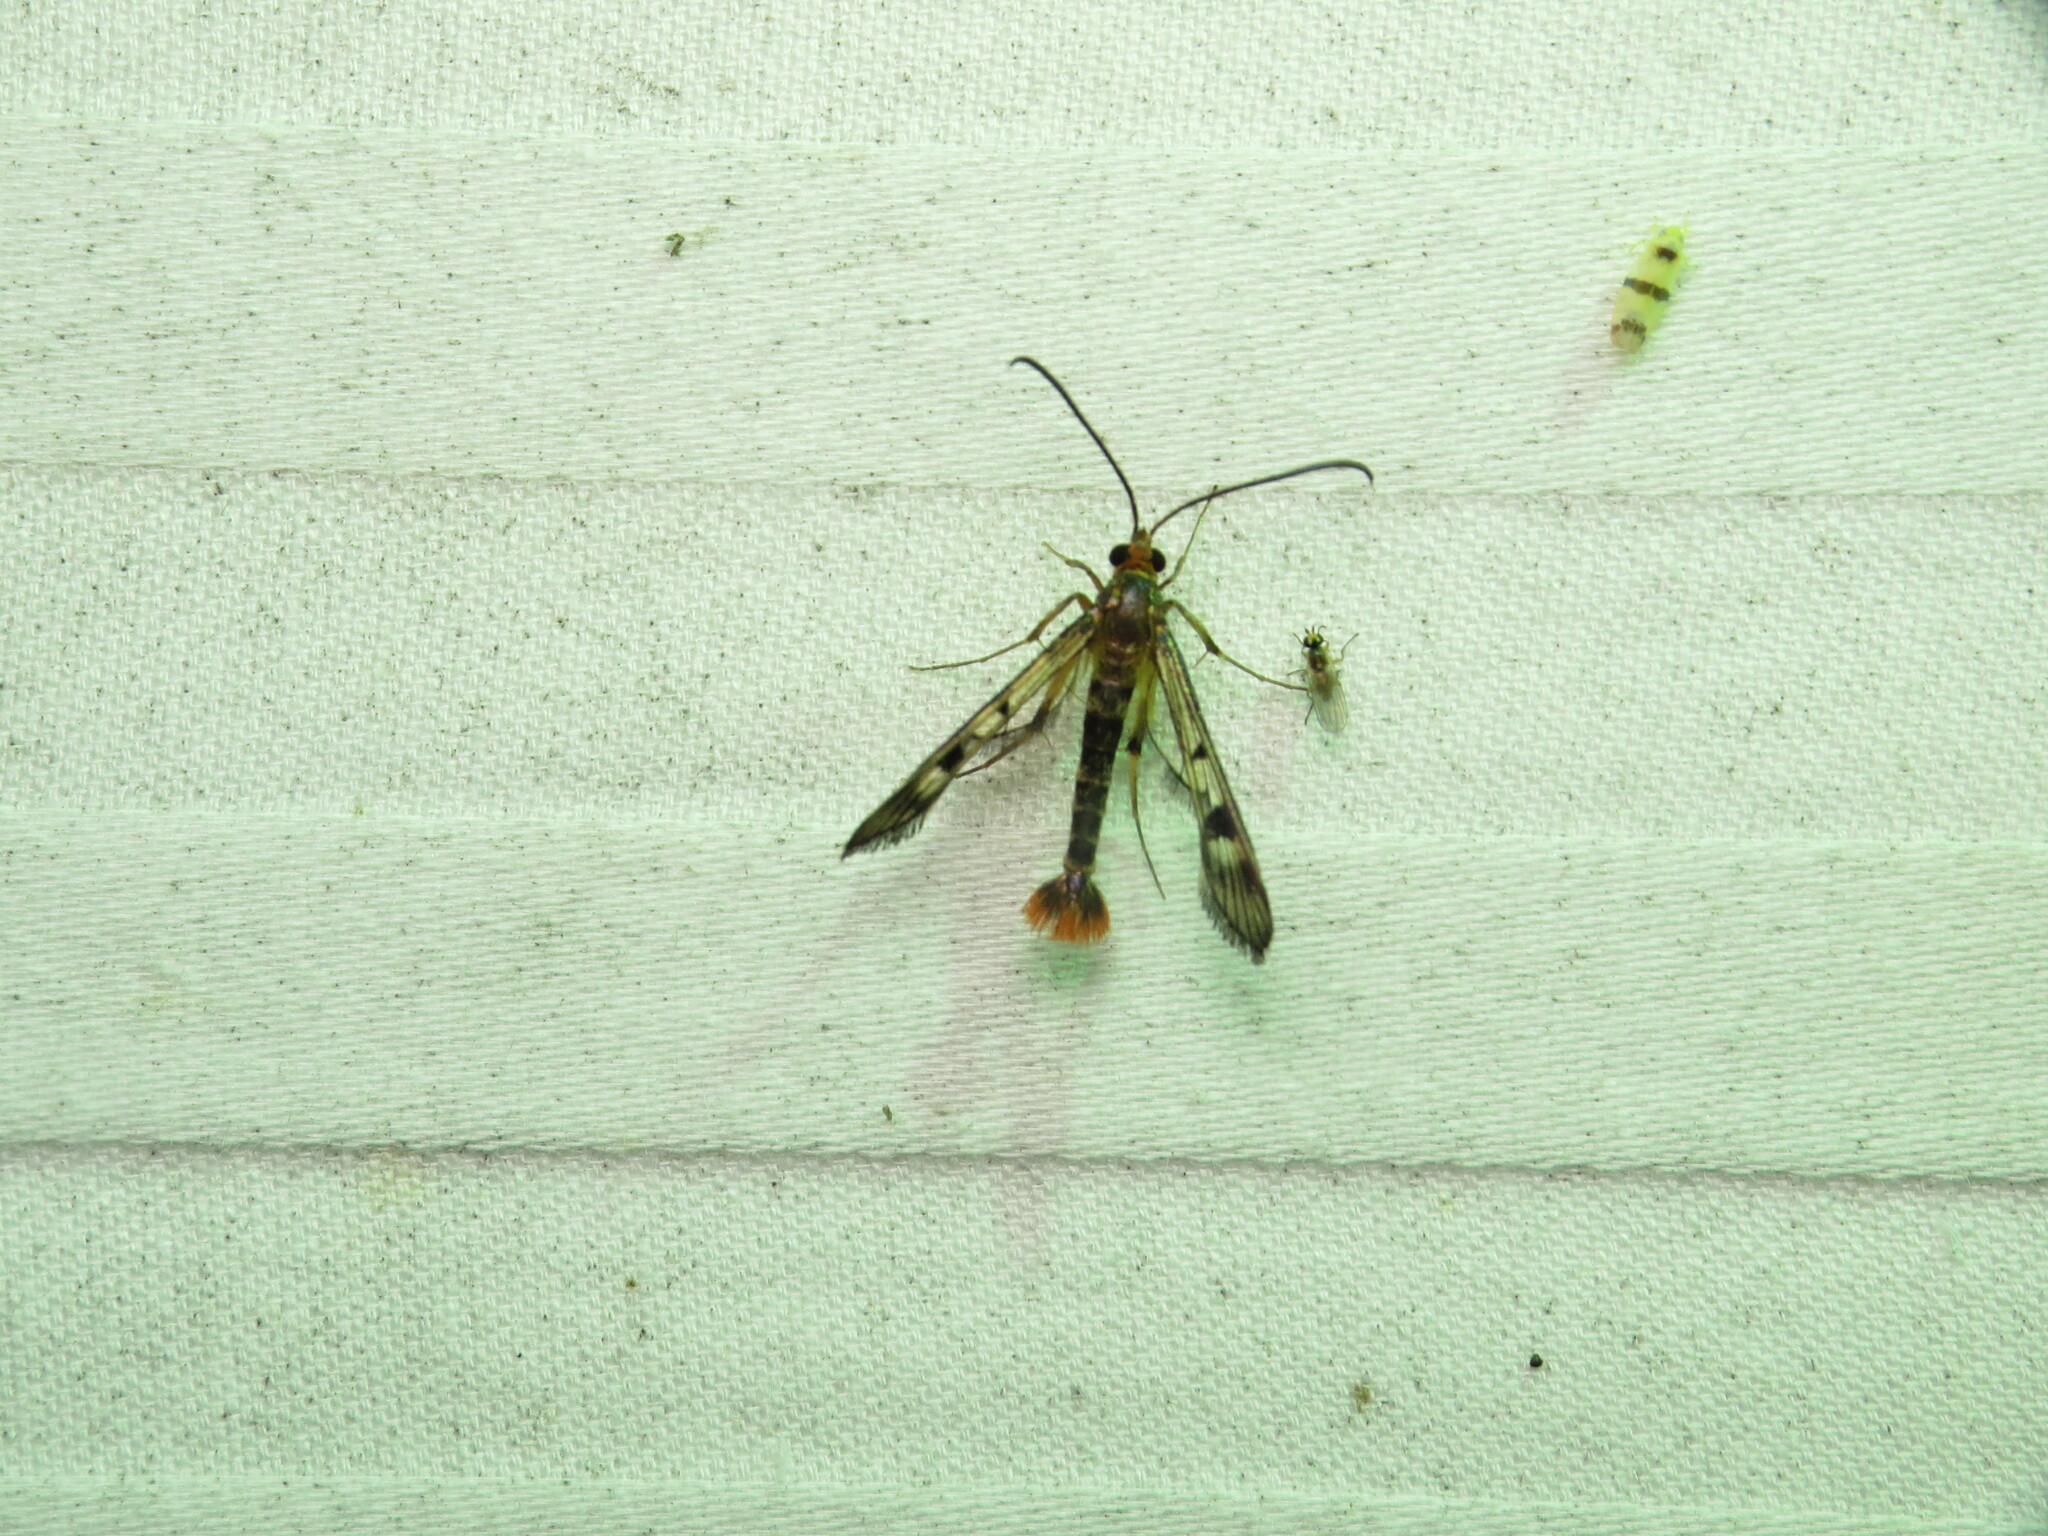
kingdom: Animalia
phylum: Arthropoda
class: Insecta
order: Lepidoptera
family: Sesiidae
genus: Synanthedon
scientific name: Synanthedon acerni
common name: Maple callus borer moth
